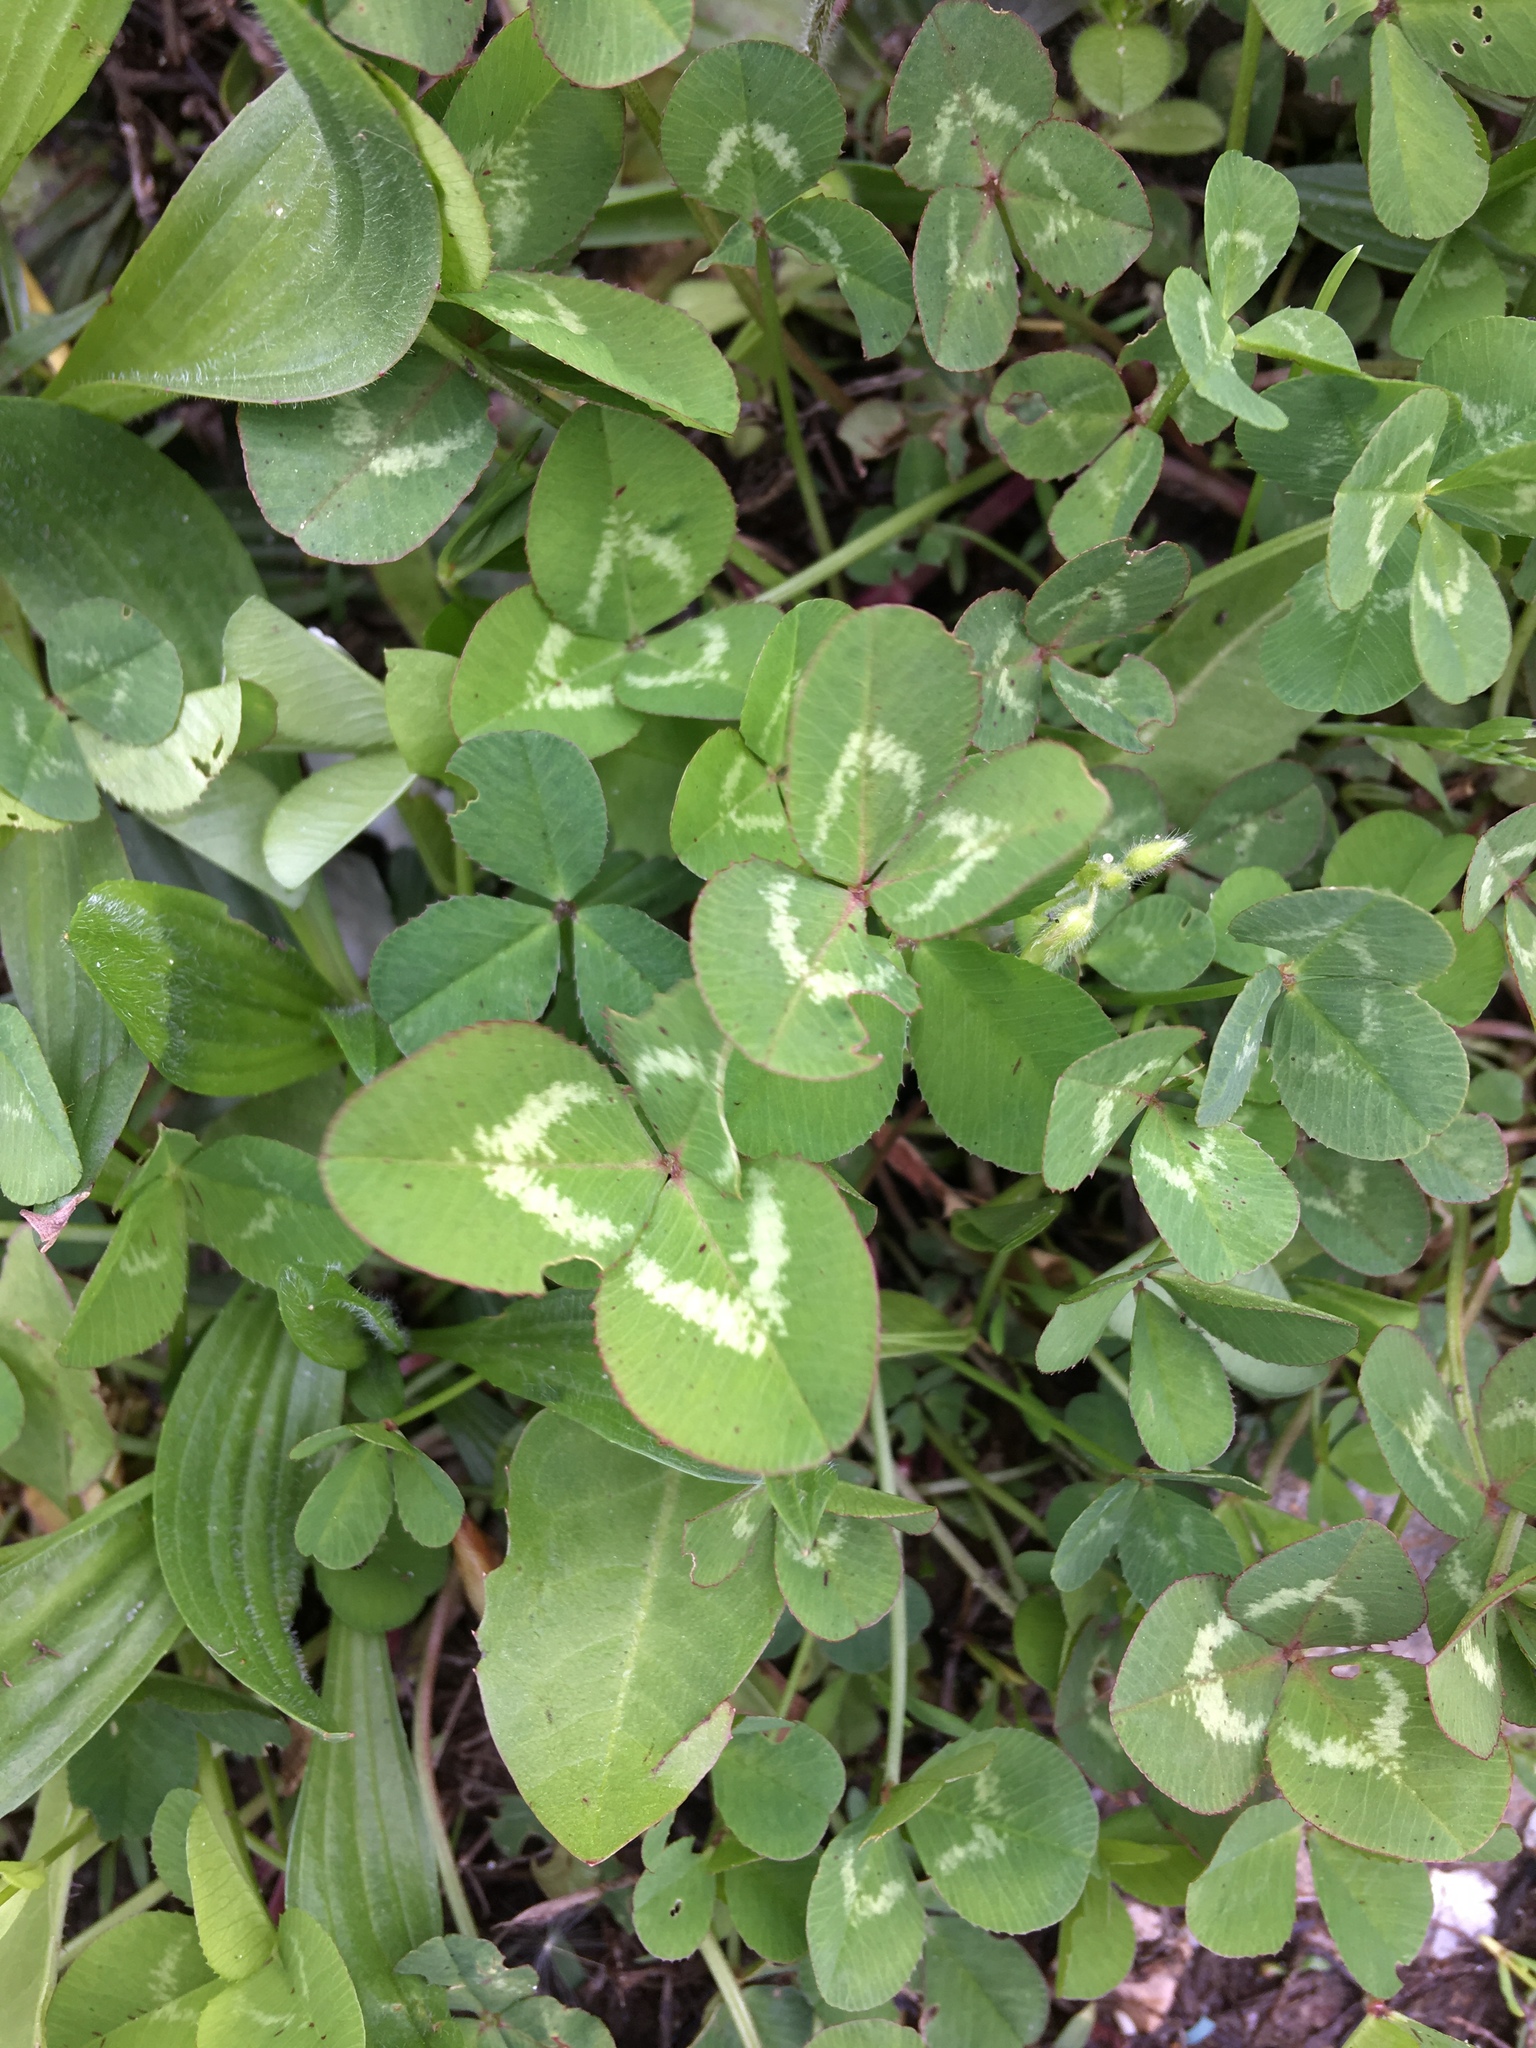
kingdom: Plantae
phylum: Tracheophyta
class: Magnoliopsida
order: Fabales
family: Fabaceae
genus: Trifolium
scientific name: Trifolium repens
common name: White clover
